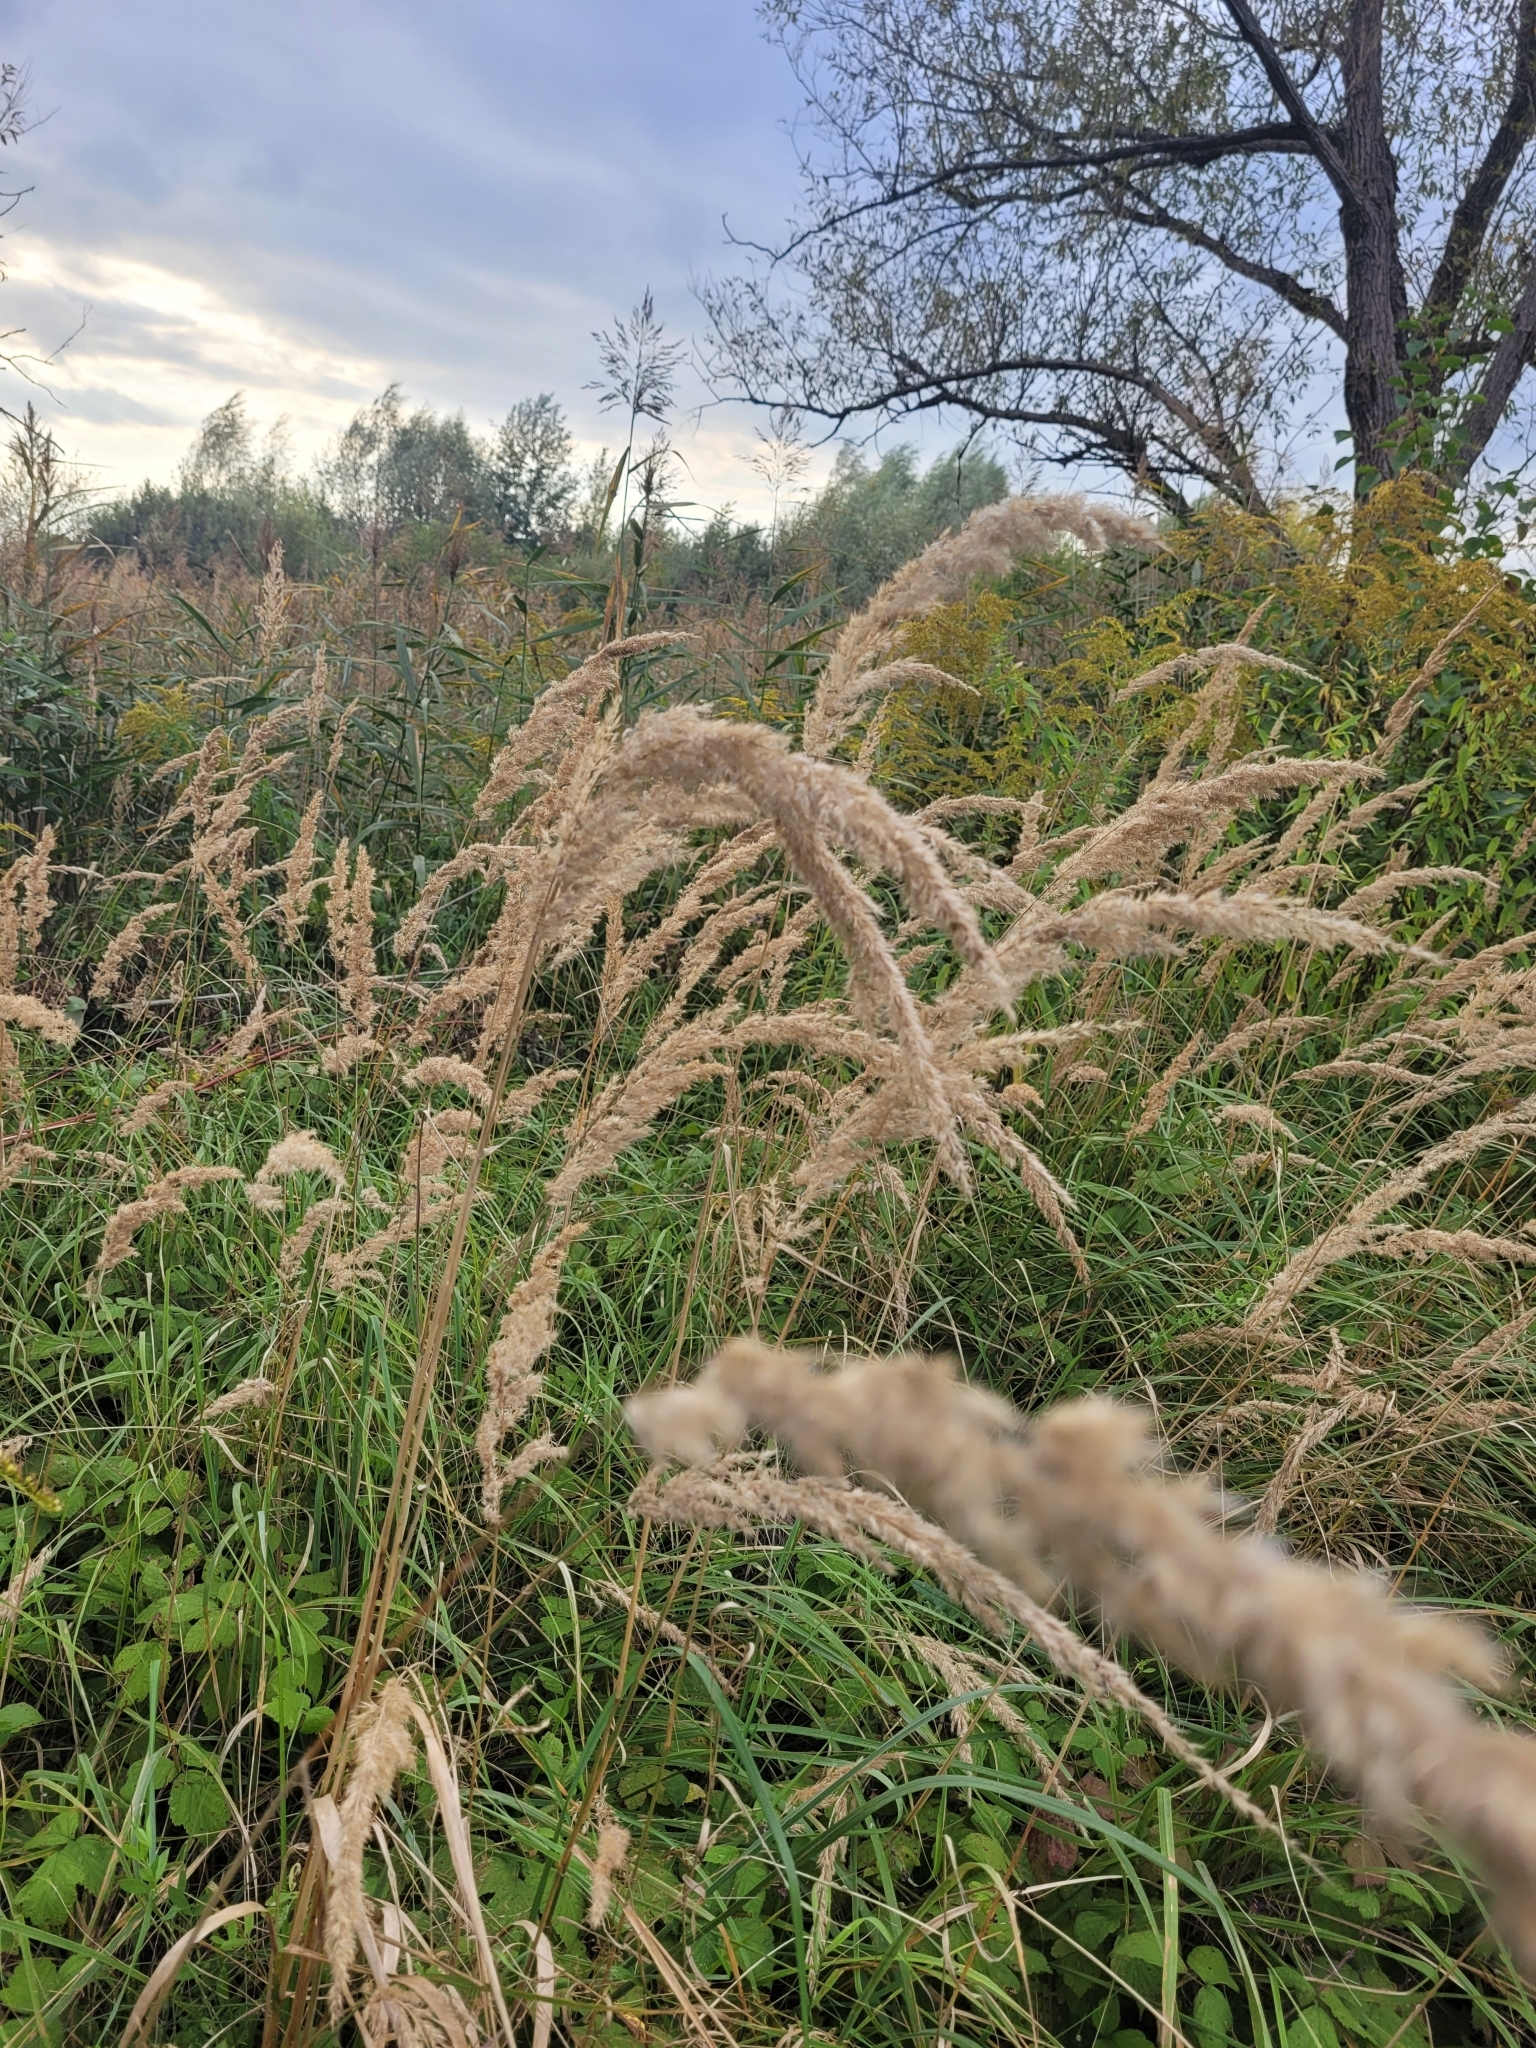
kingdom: Plantae
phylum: Tracheophyta
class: Liliopsida
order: Poales
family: Poaceae
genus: Calamagrostis
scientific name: Calamagrostis epigejos
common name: Wood small-reed
